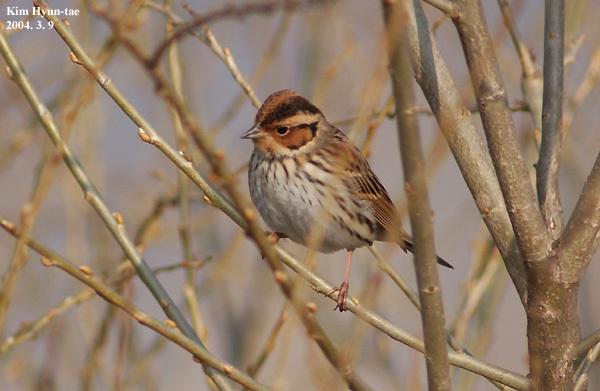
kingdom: Animalia
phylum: Chordata
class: Aves
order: Passeriformes
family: Emberizidae
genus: Emberiza
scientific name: Emberiza pusilla
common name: Little bunting
